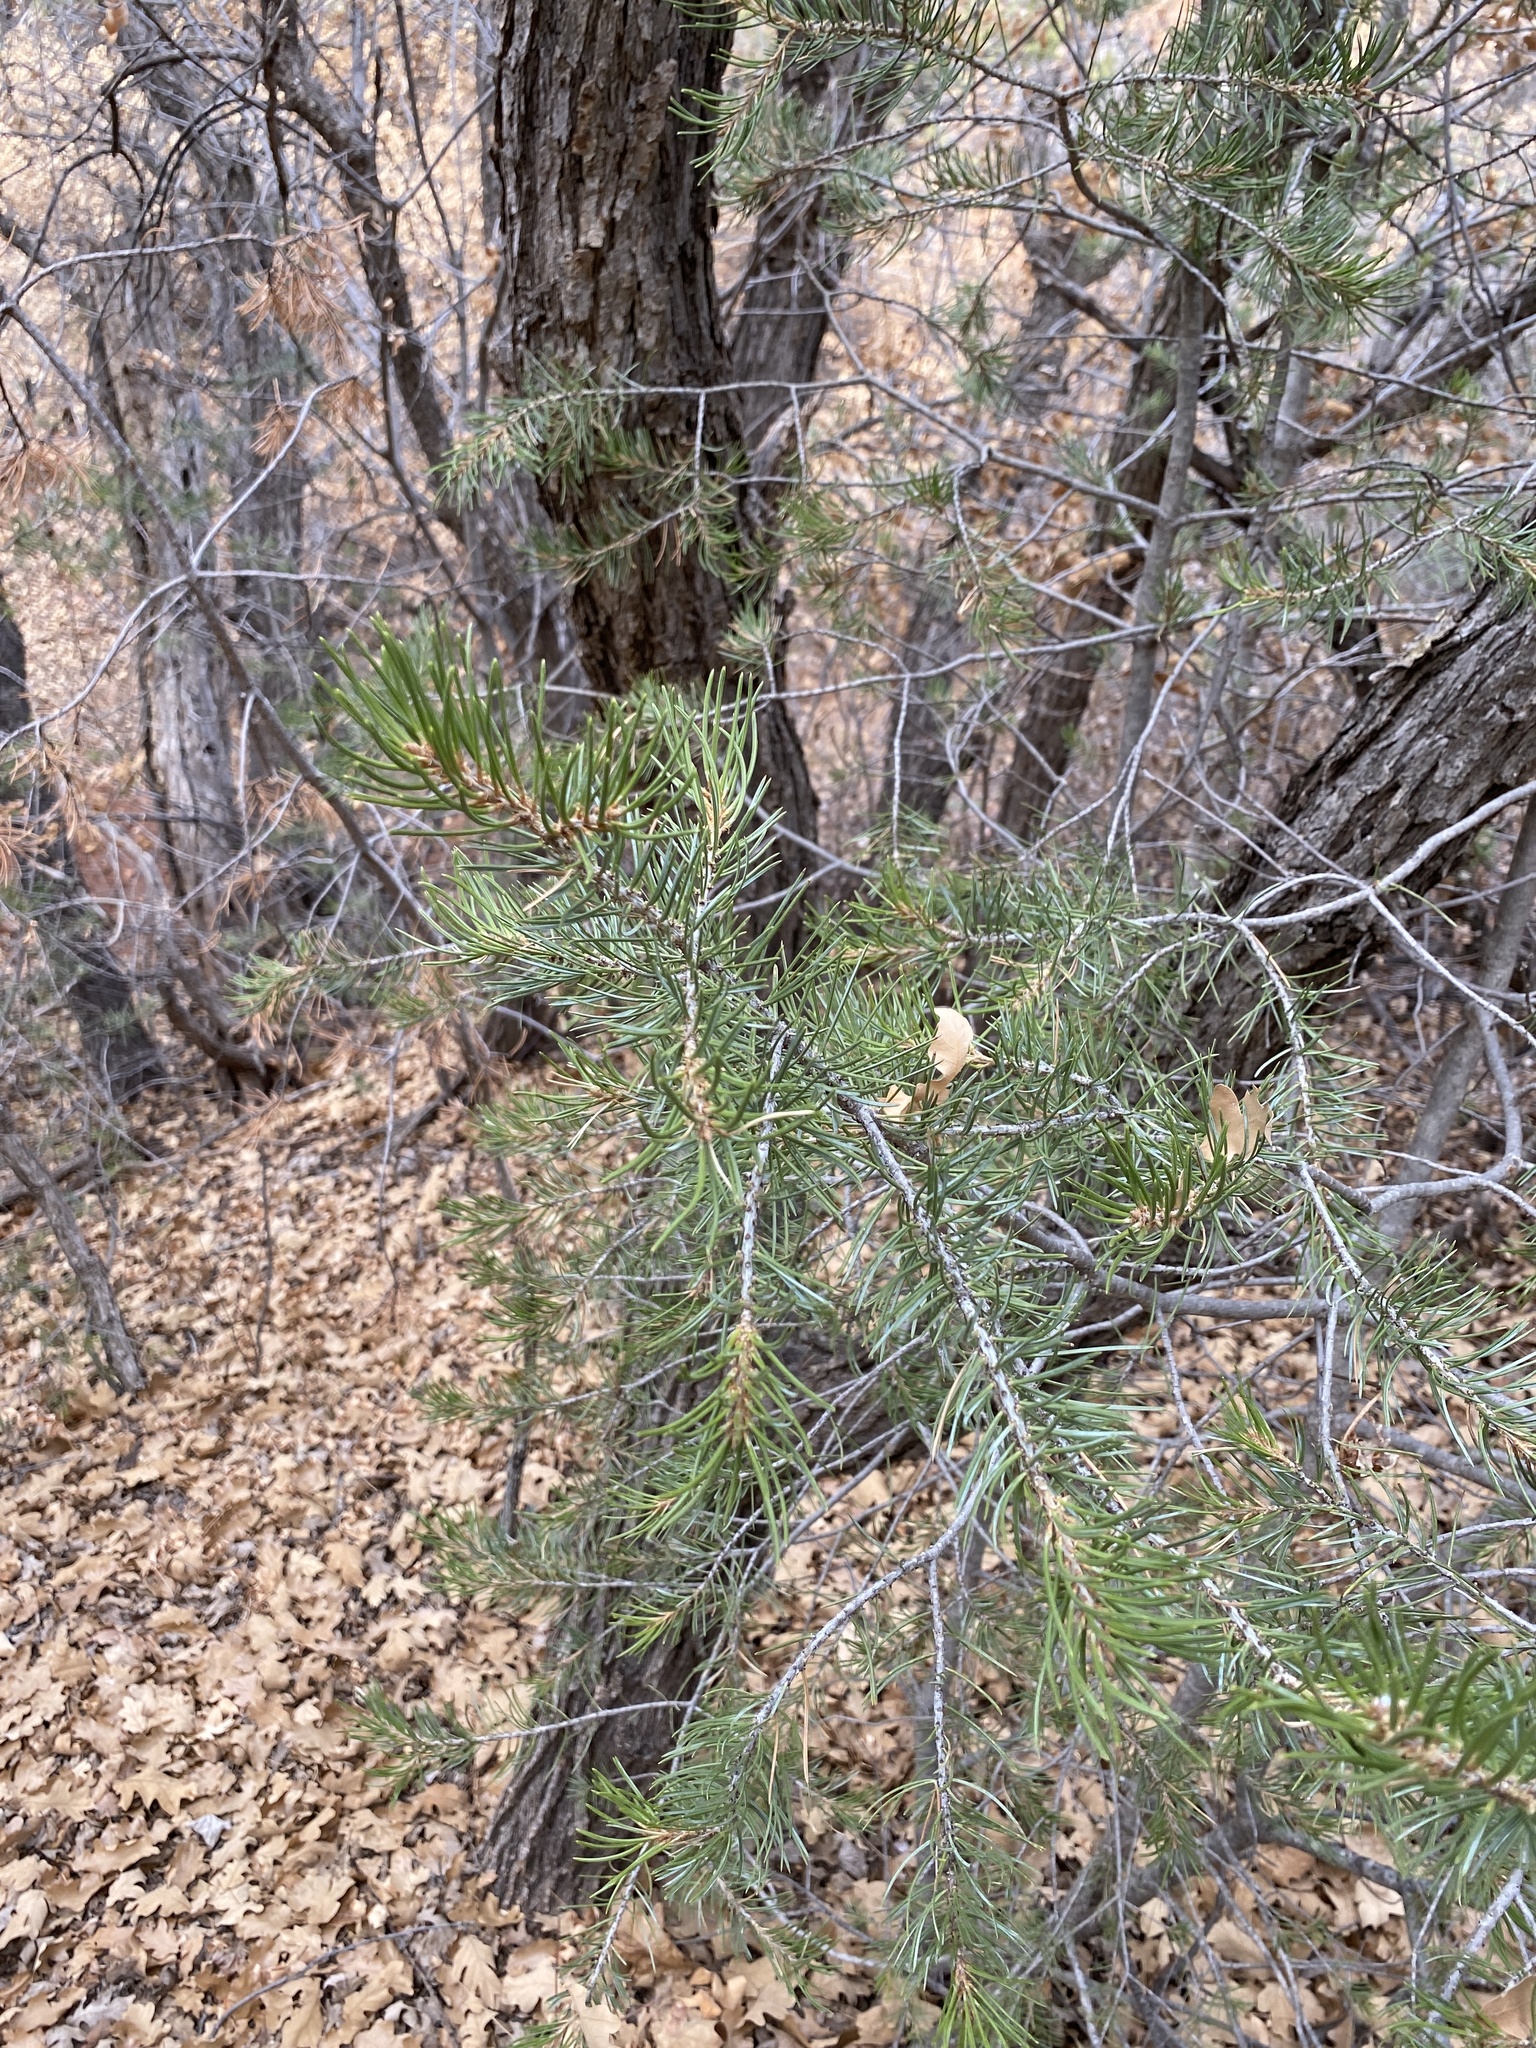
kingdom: Plantae
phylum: Tracheophyta
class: Pinopsida
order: Pinales
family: Pinaceae
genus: Pinus
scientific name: Pinus edulis
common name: Colorado pinyon
